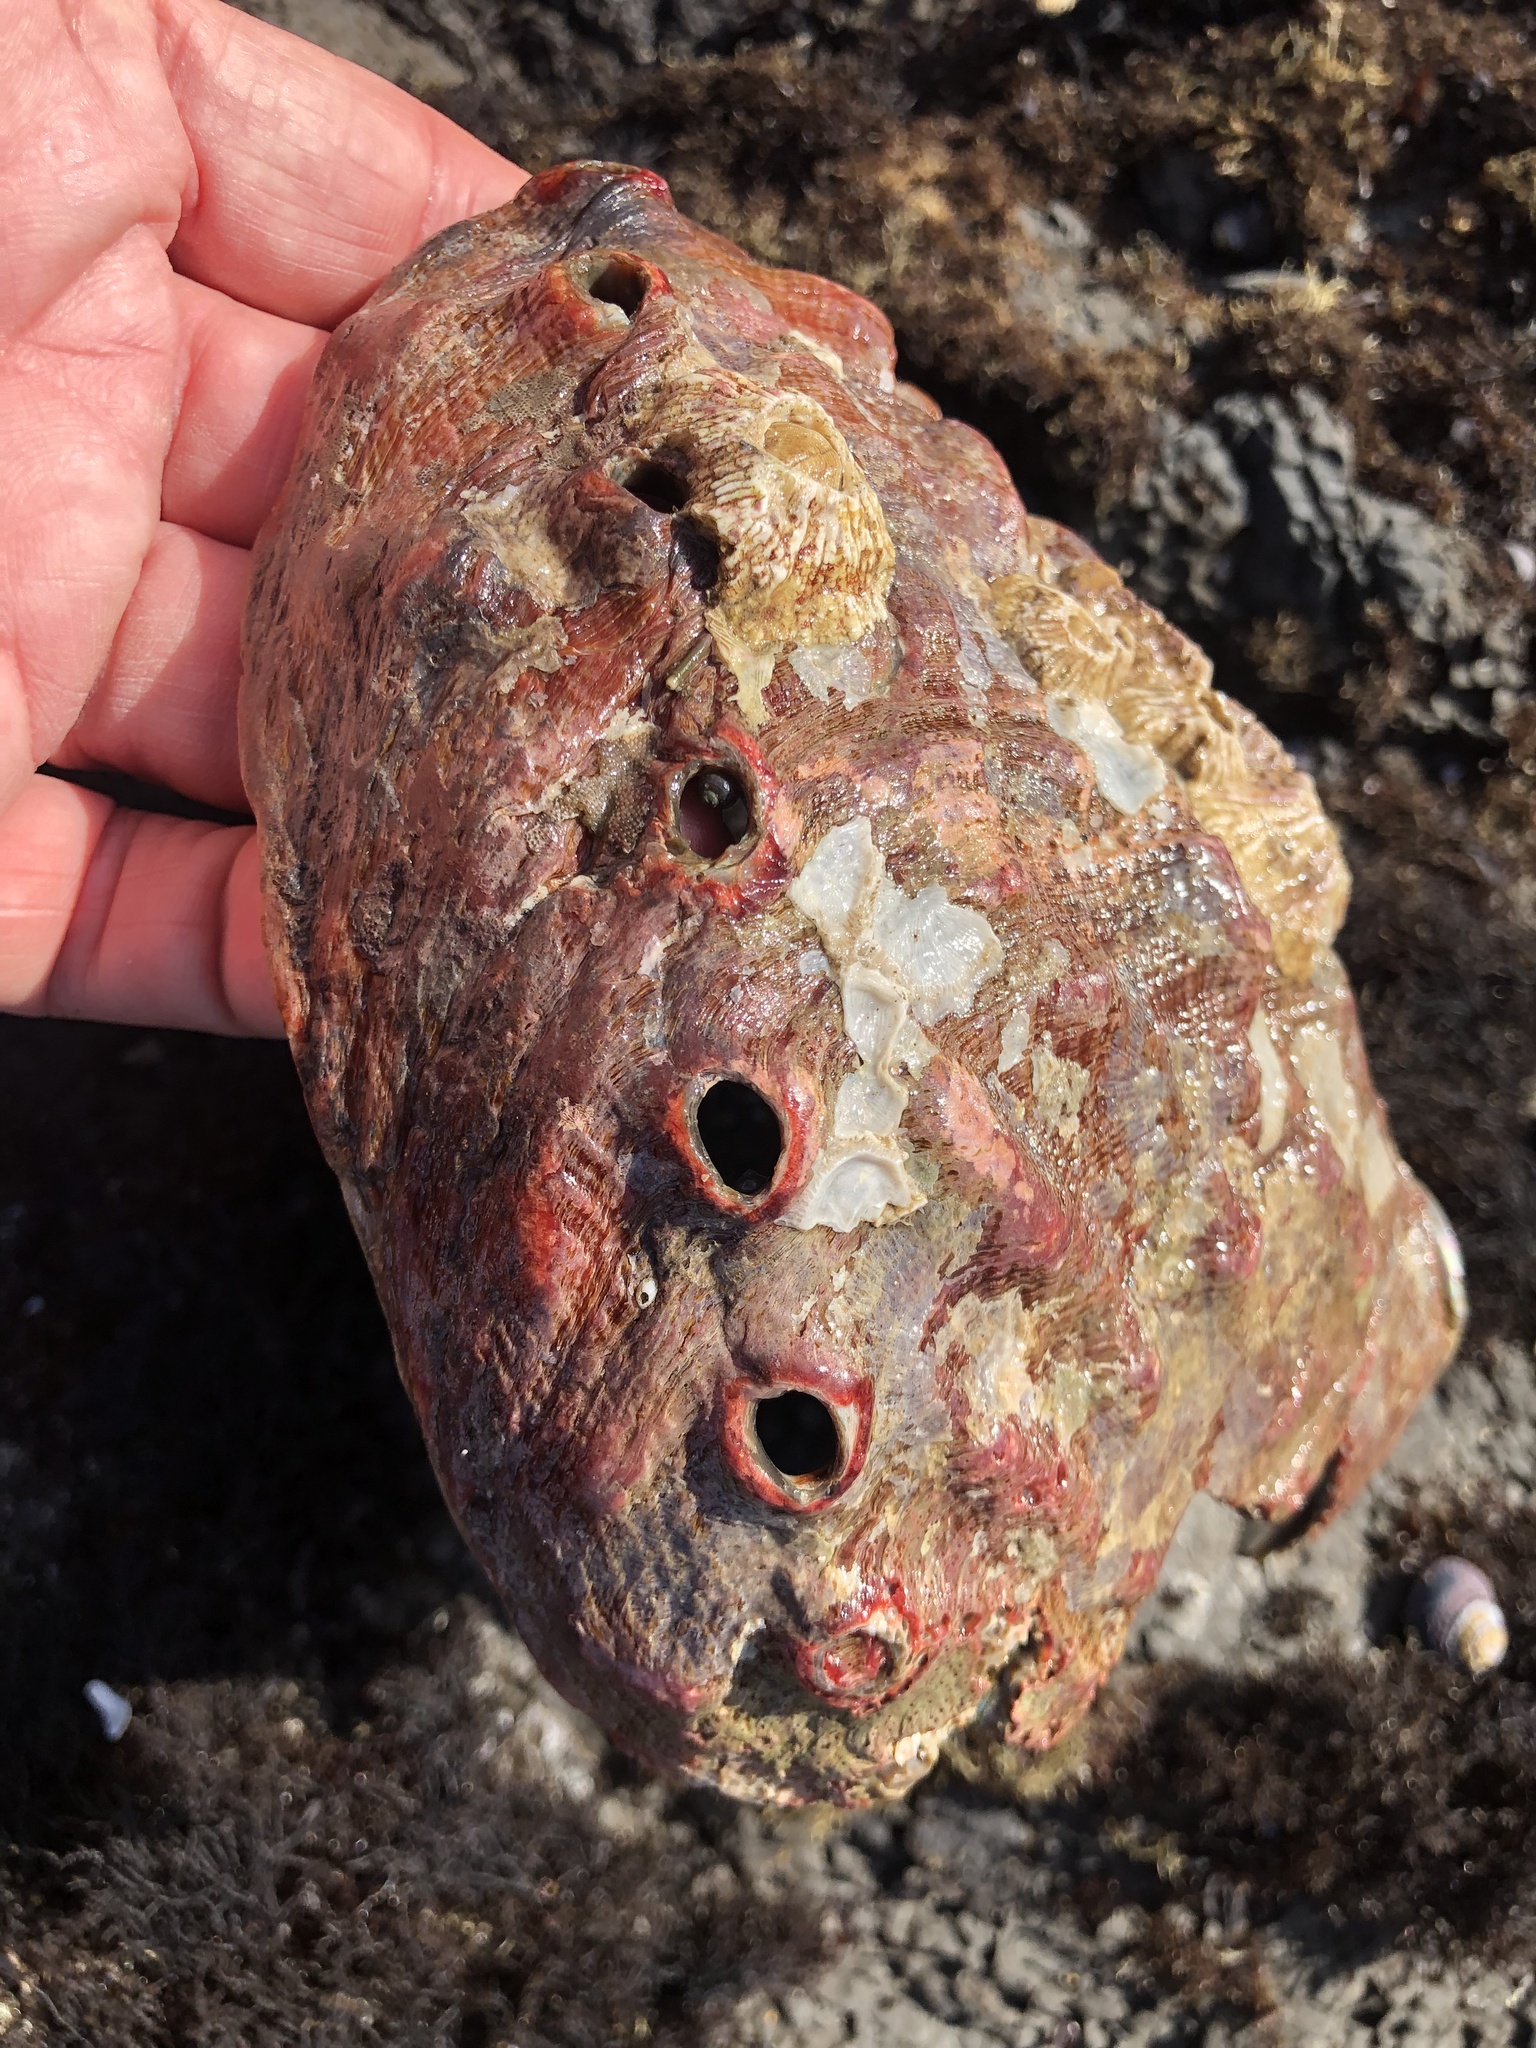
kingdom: Animalia
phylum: Mollusca
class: Gastropoda
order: Lepetellida
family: Haliotidae
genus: Haliotis
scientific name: Haliotis rufescens
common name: Red abalone
